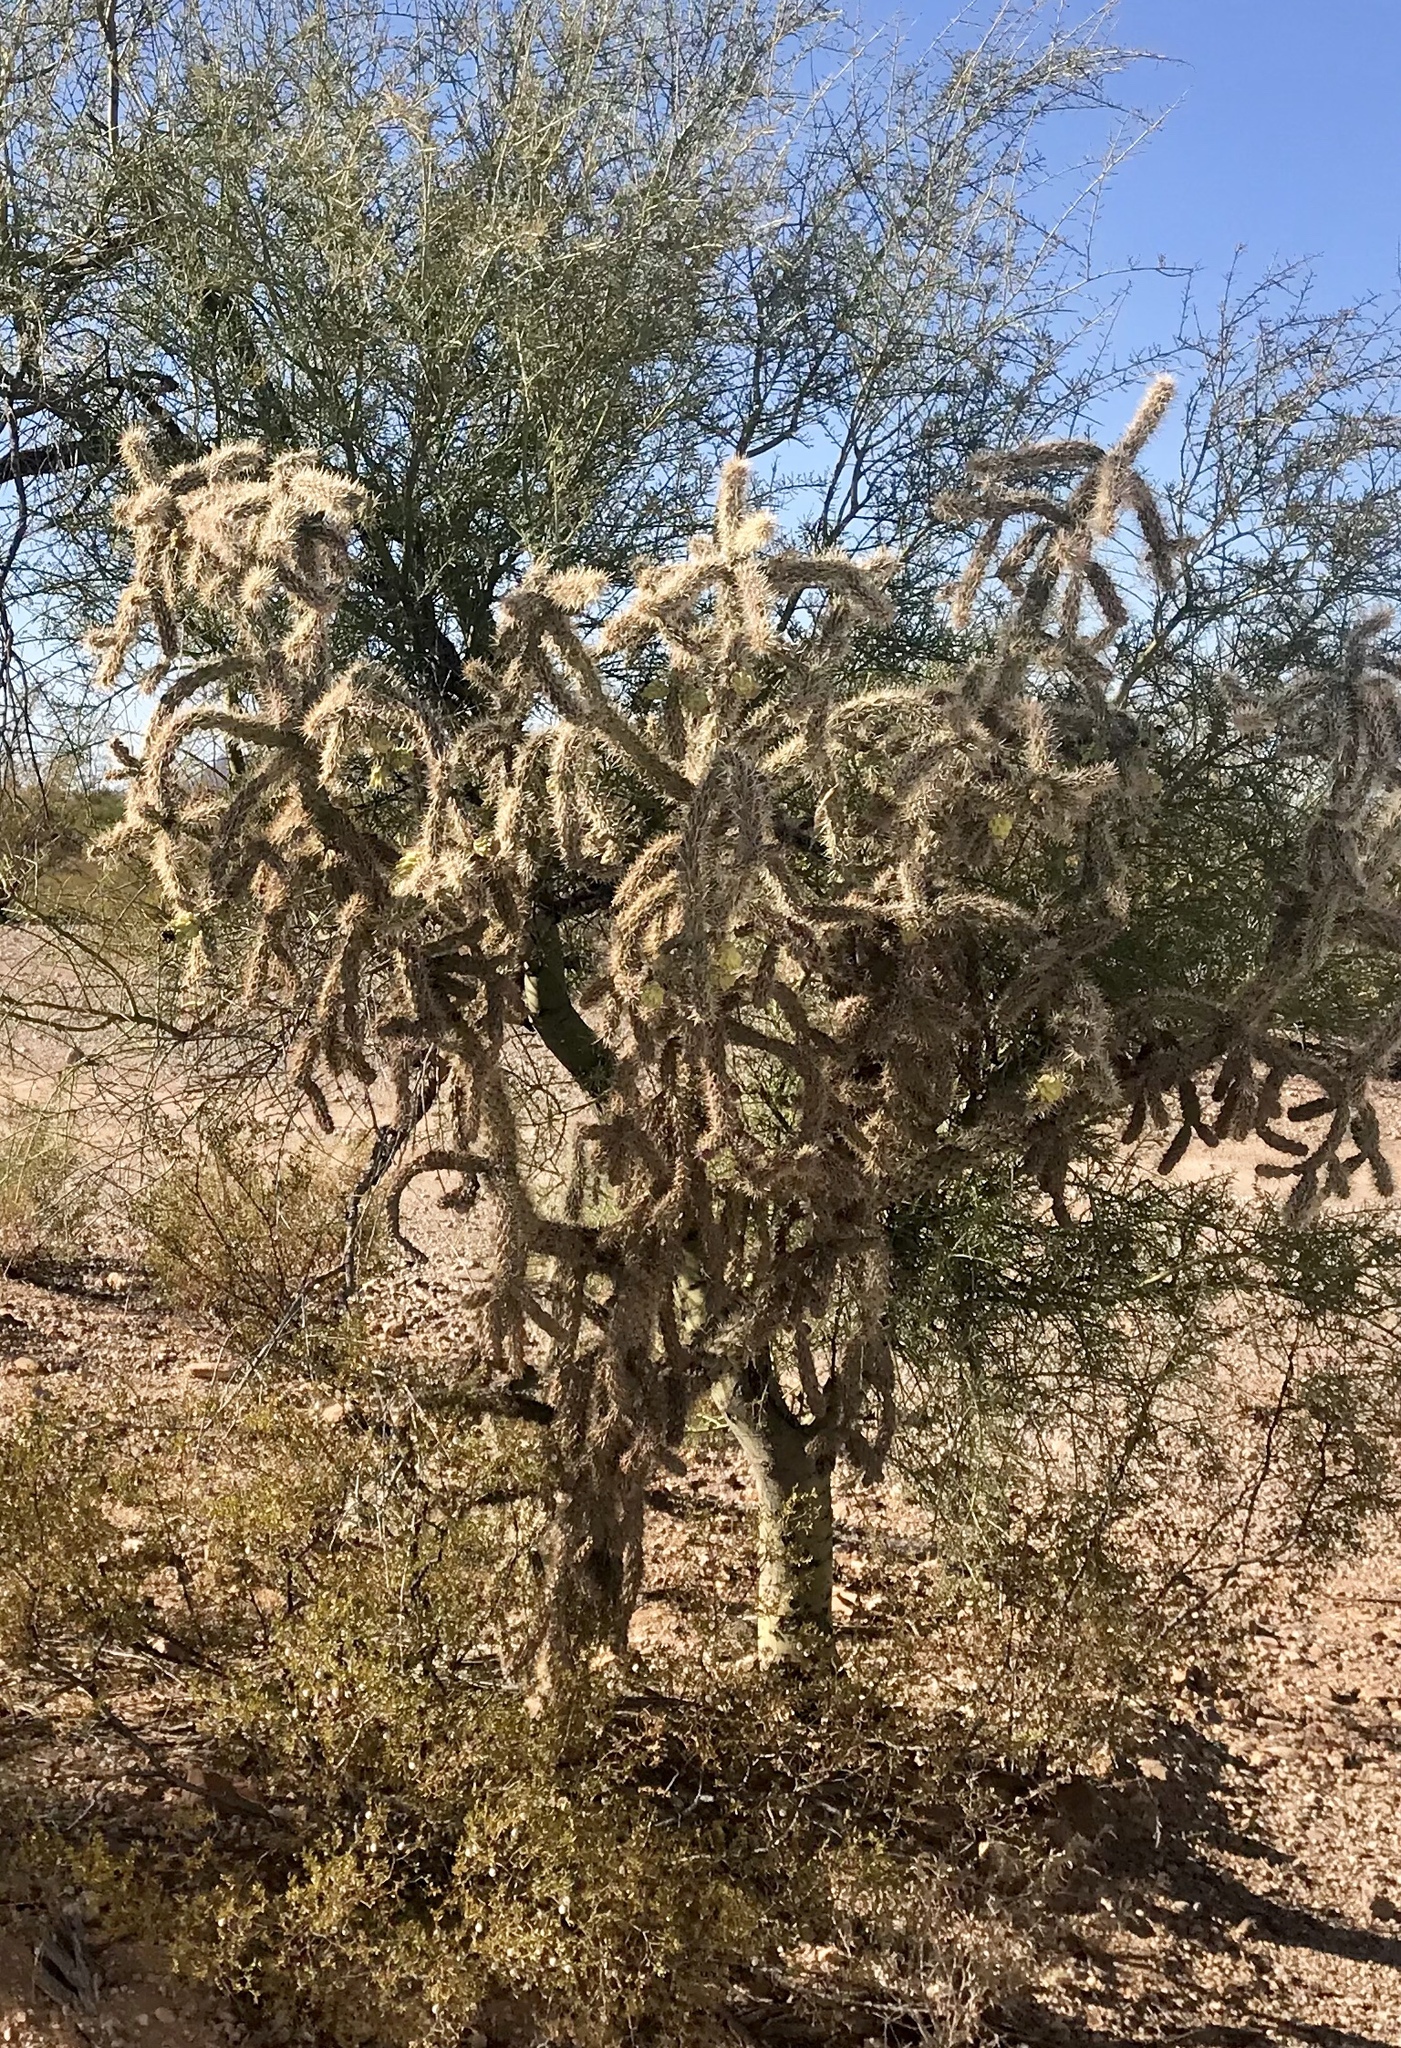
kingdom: Plantae
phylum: Tracheophyta
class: Magnoliopsida
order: Caryophyllales
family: Cactaceae
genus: Cylindropuntia
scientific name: Cylindropuntia acanthocarpa
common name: Buckhorn cholla
